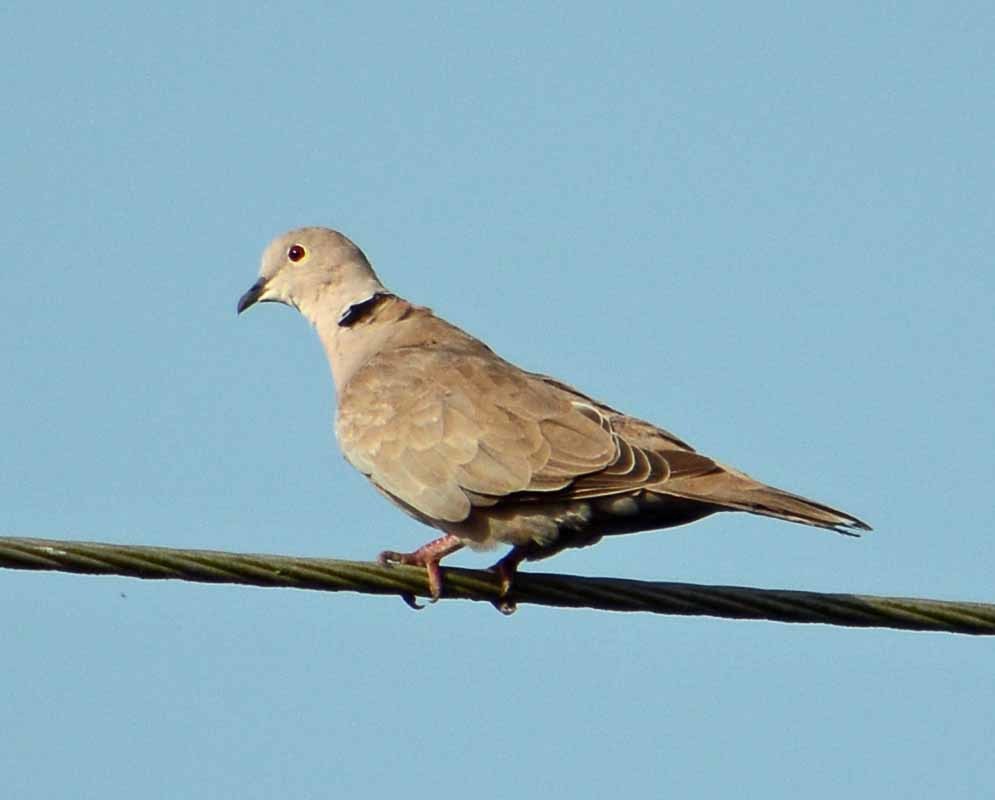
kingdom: Animalia
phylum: Chordata
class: Aves
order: Columbiformes
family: Columbidae
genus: Streptopelia
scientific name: Streptopelia decaocto
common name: Eurasian collared dove
